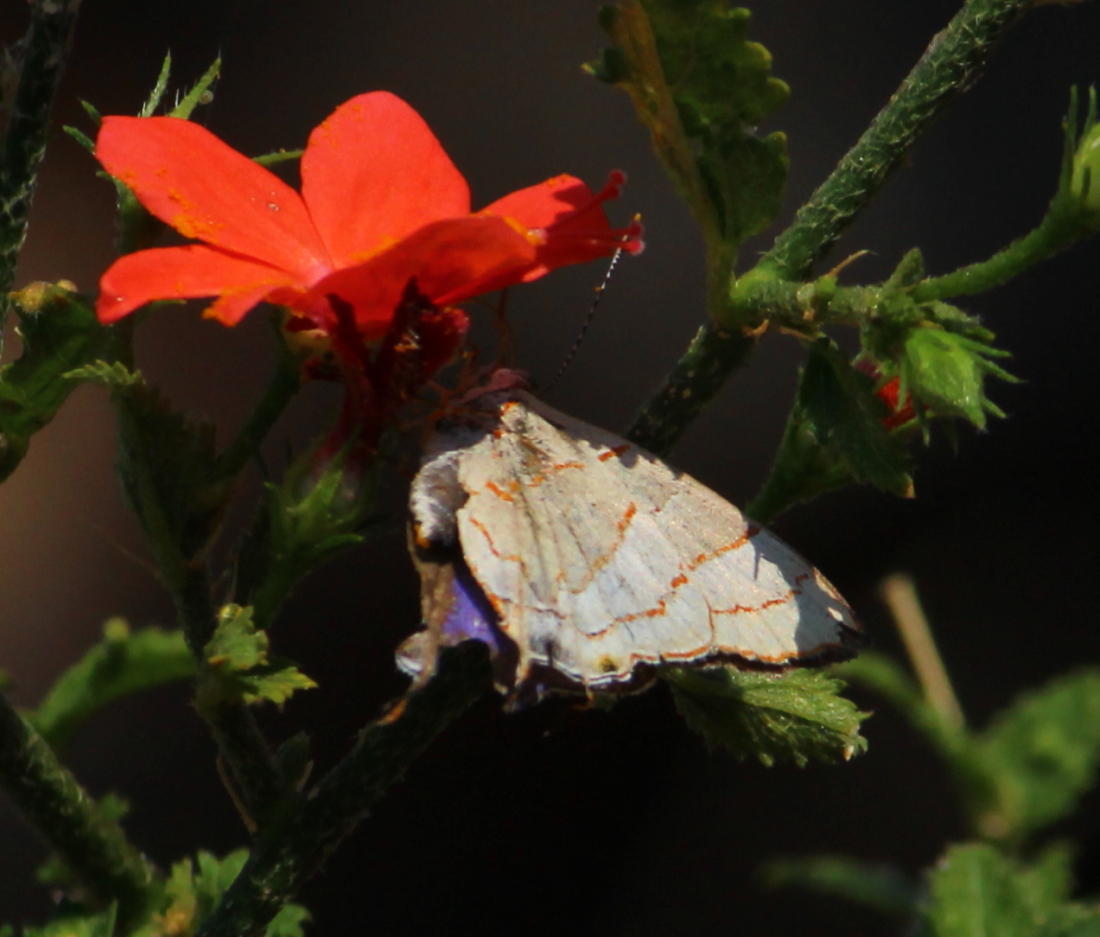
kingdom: Animalia
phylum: Arthropoda
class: Insecta
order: Lepidoptera
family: Lycaenidae
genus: Hemiolaus
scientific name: Hemiolaus caeculus
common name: Azure hairstreak
